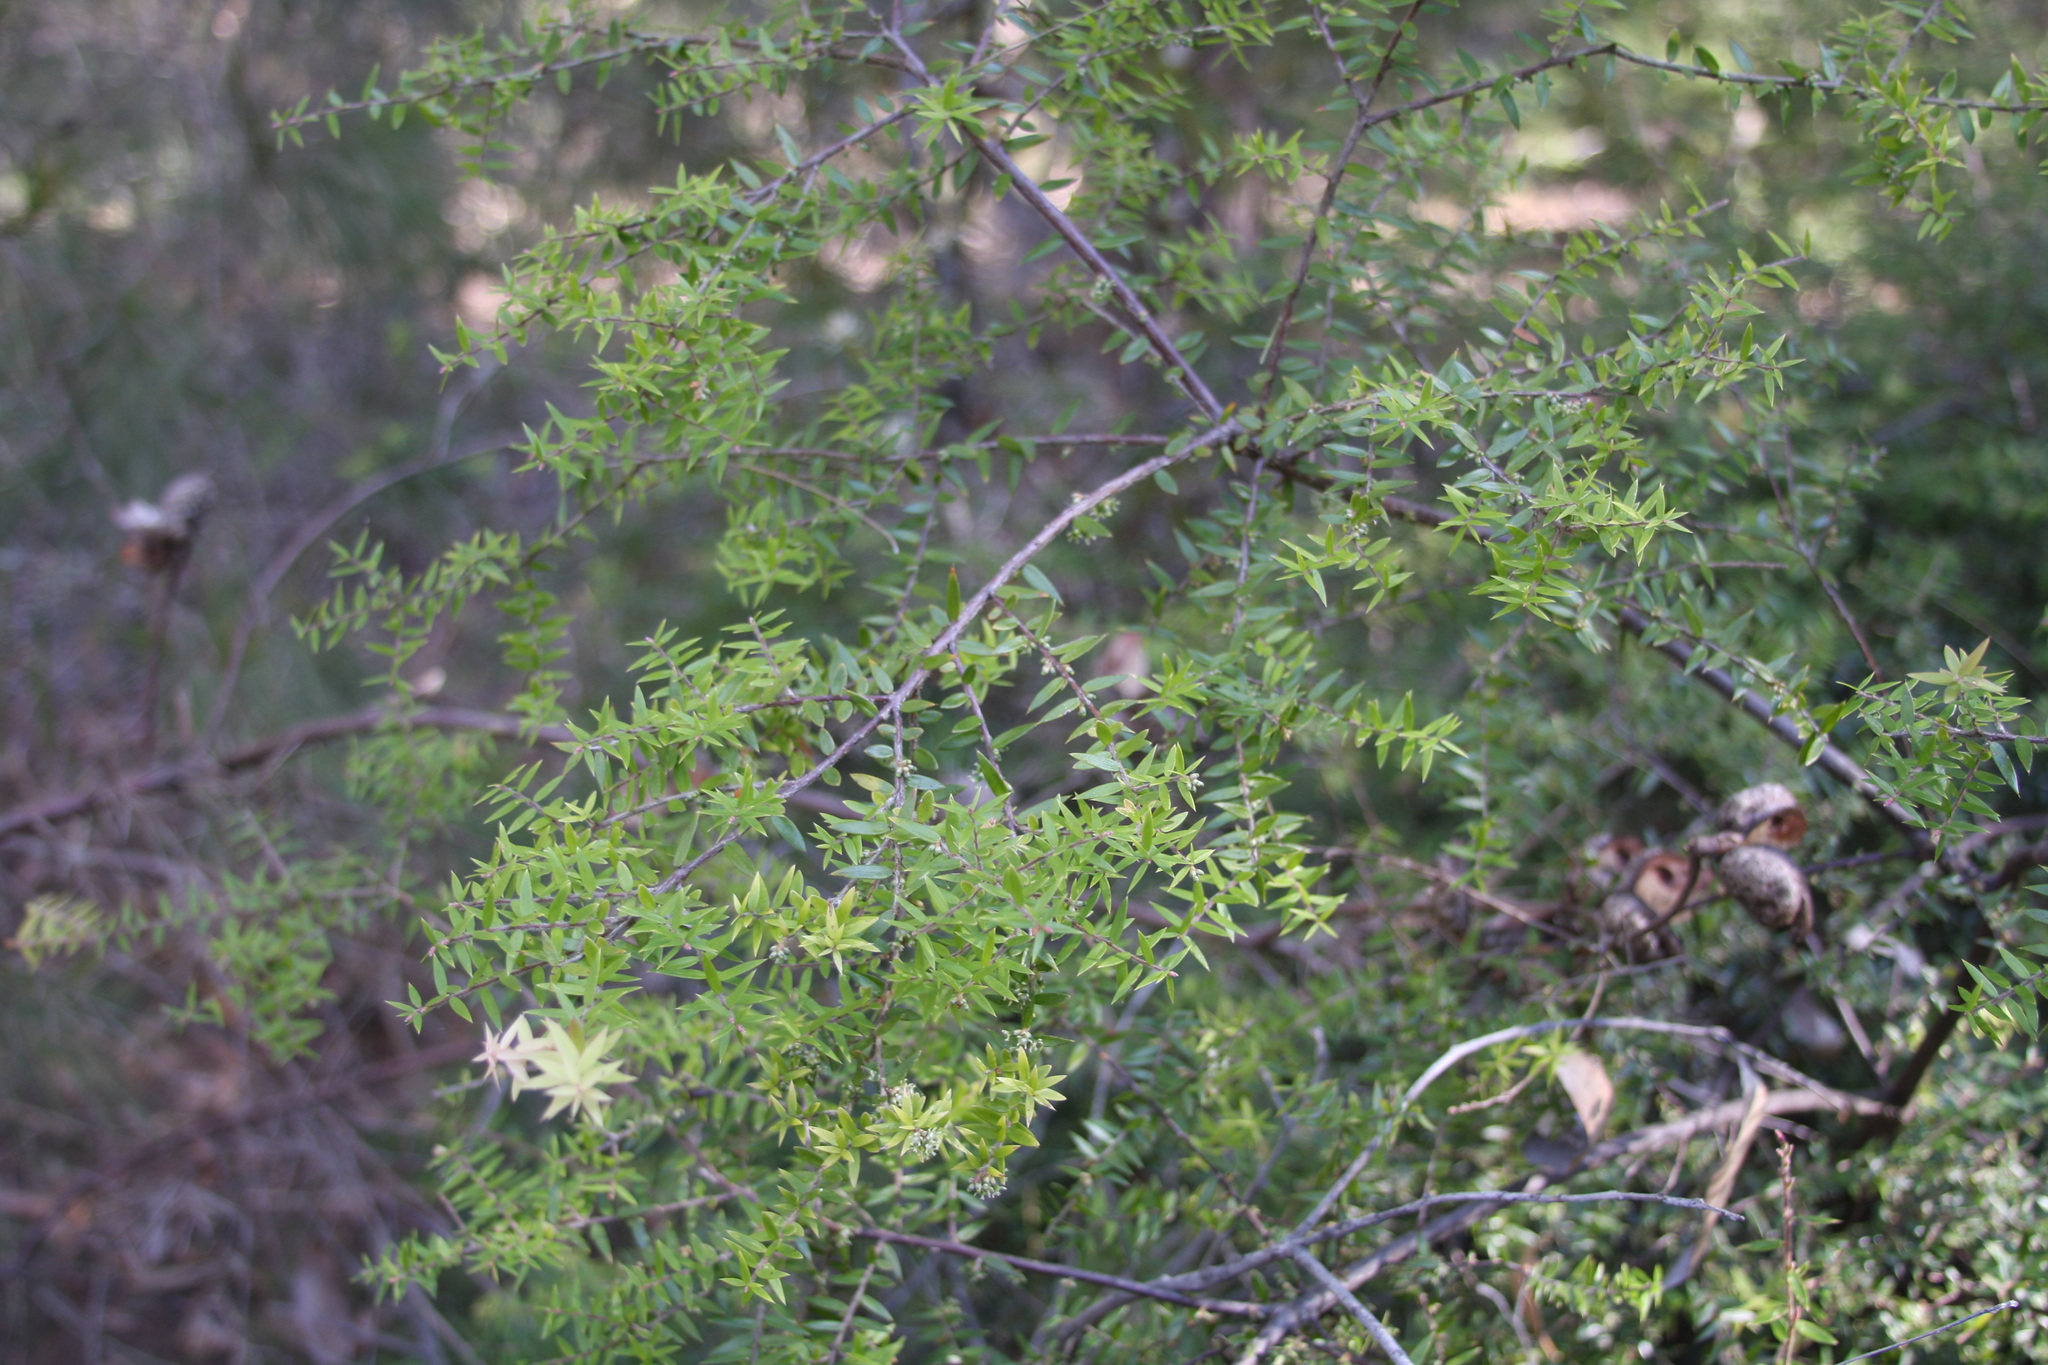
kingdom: Plantae
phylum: Tracheophyta
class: Magnoliopsida
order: Ericales
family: Ericaceae
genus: Acrotriche
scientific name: Acrotriche divaricata
